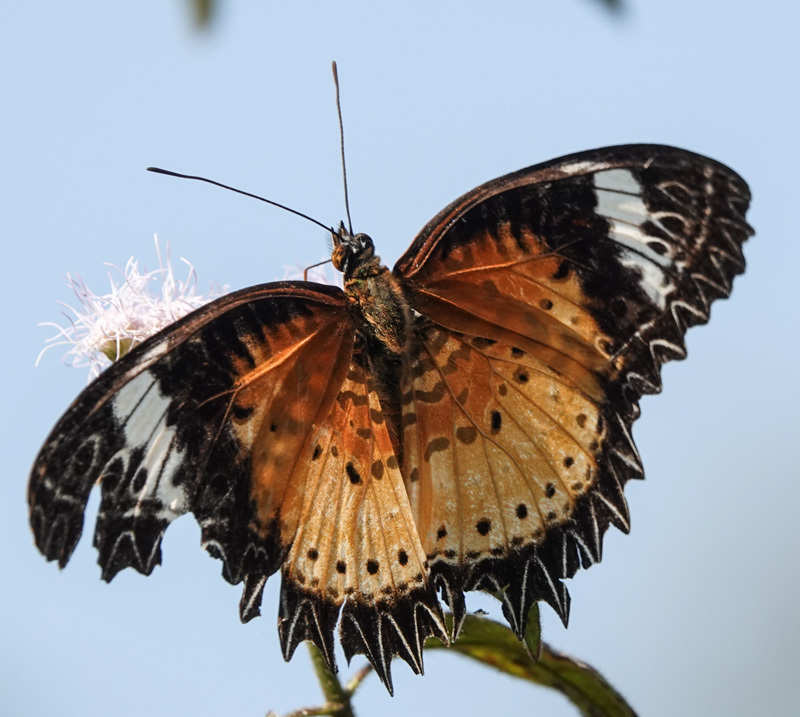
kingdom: Animalia
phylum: Arthropoda
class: Insecta
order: Lepidoptera
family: Nymphalidae
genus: Cethosia
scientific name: Cethosia cyane
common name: Leopard lacewing butterfly
